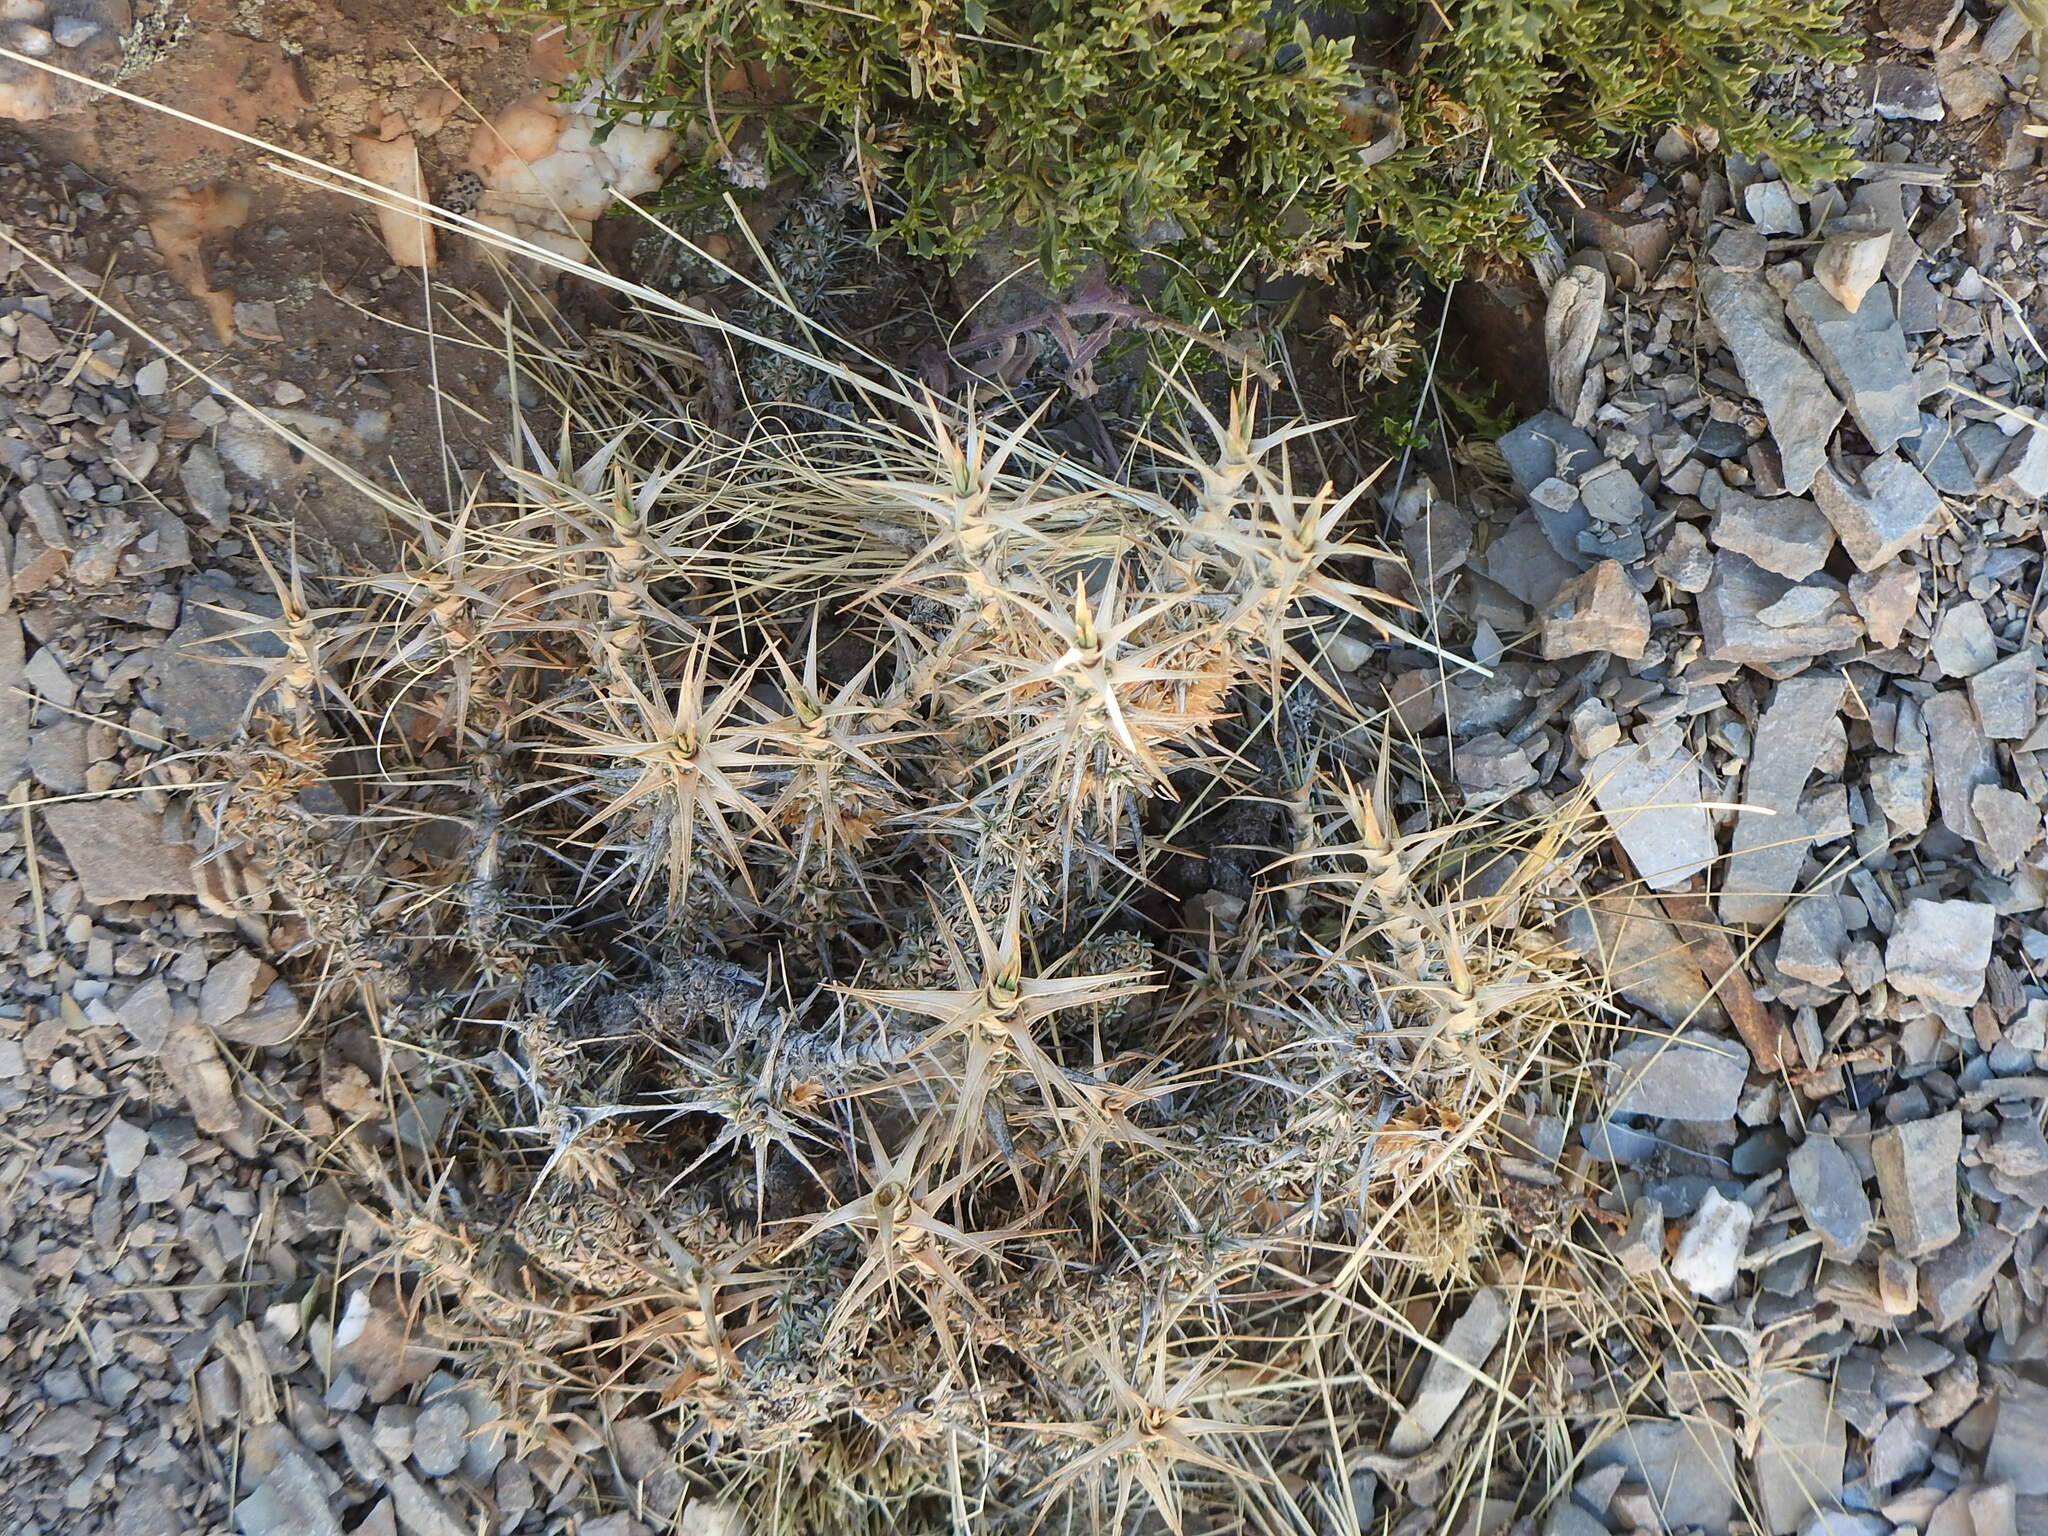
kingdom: Plantae
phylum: Tracheophyta
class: Magnoliopsida
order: Asterales
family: Asteraceae
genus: Nassauvia
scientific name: Nassauvia axillaris
